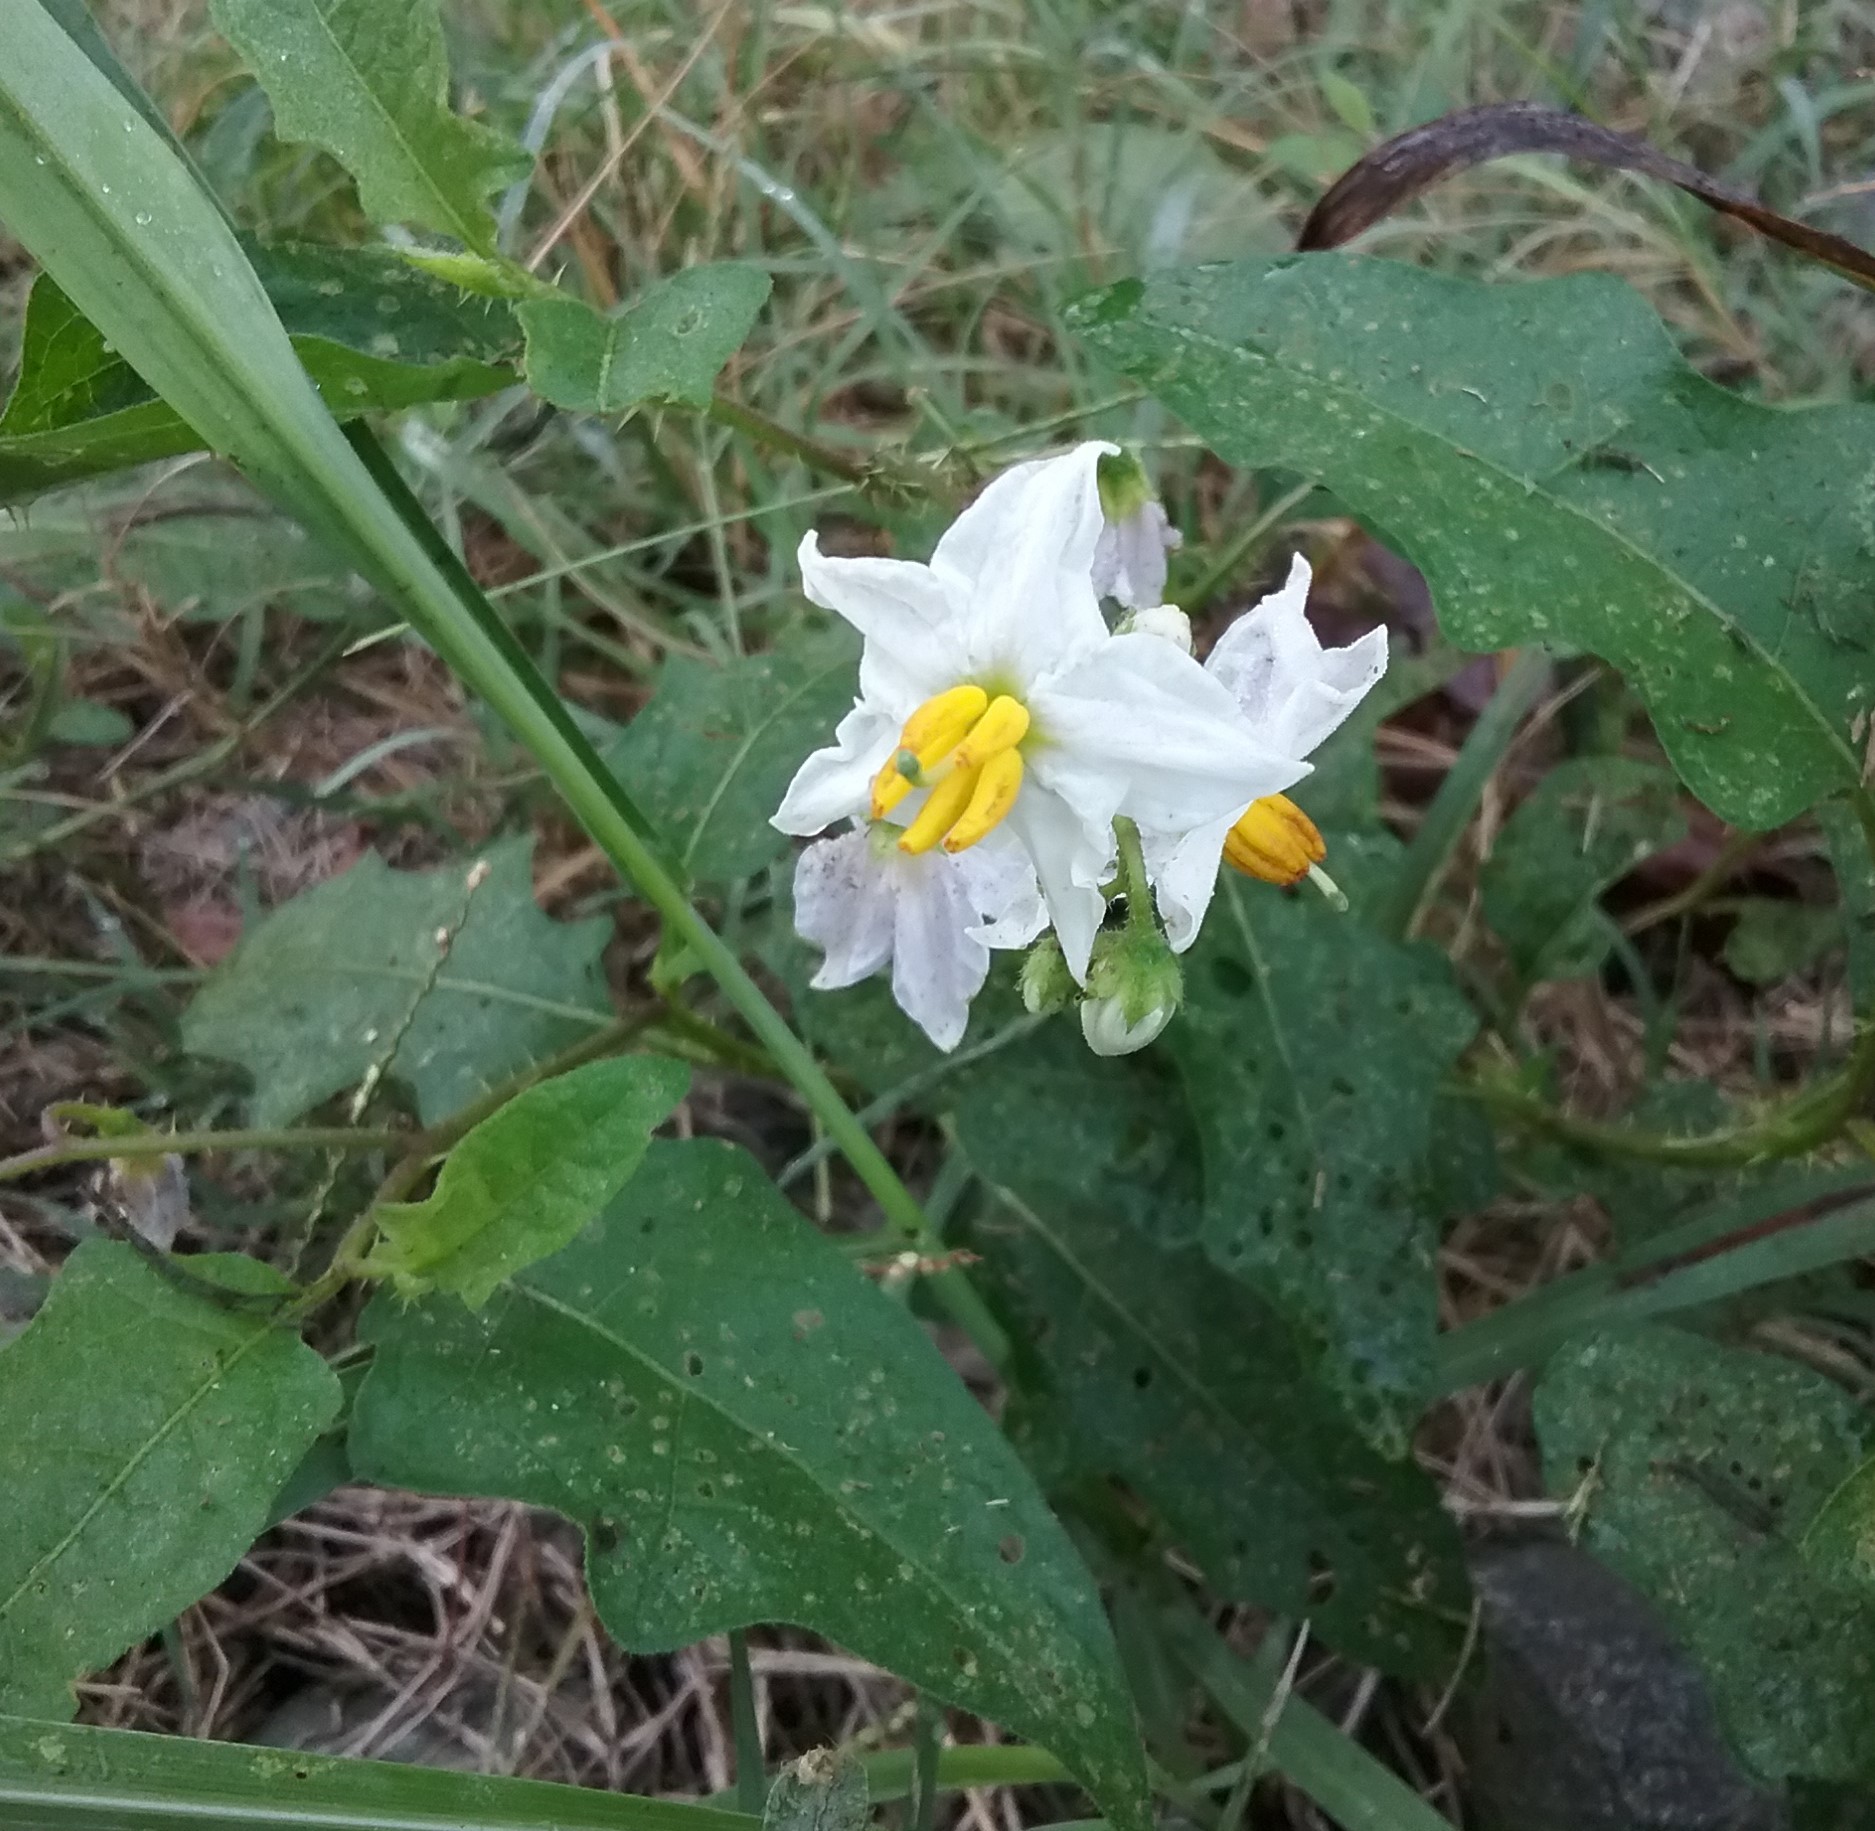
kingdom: Plantae
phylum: Tracheophyta
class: Magnoliopsida
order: Solanales
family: Solanaceae
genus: Solanum
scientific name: Solanum carolinense
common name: Horse-nettle
